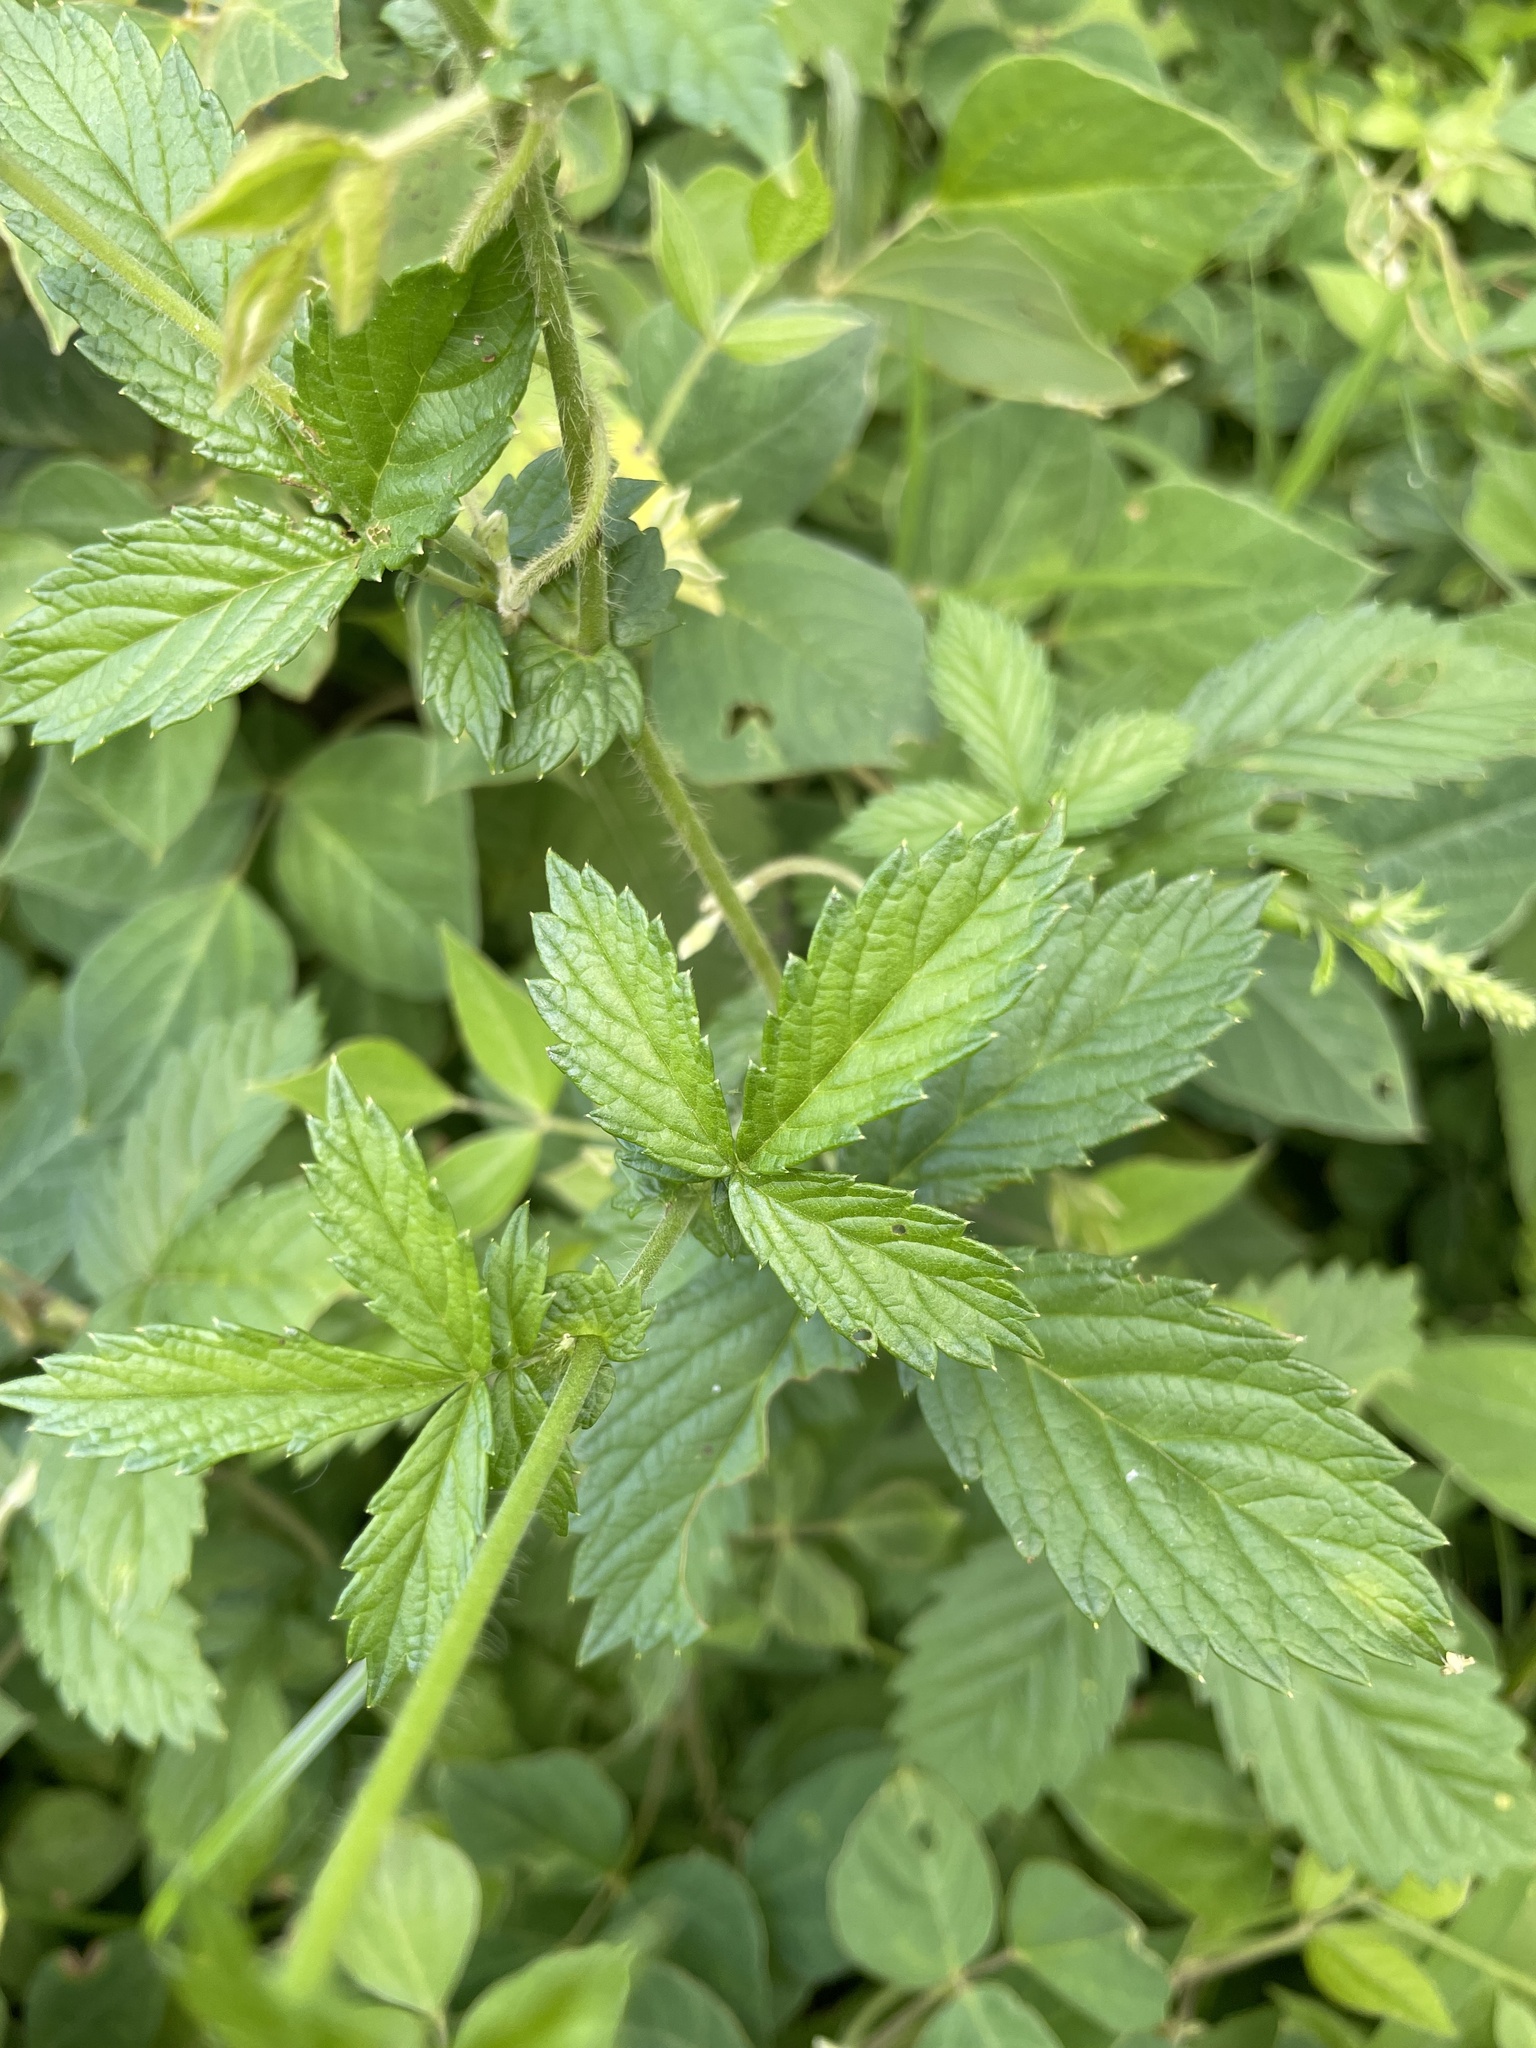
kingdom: Plantae
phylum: Tracheophyta
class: Magnoliopsida
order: Rosales
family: Rosaceae
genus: Agrimonia
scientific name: Agrimonia eupatoria
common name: Agrimony
